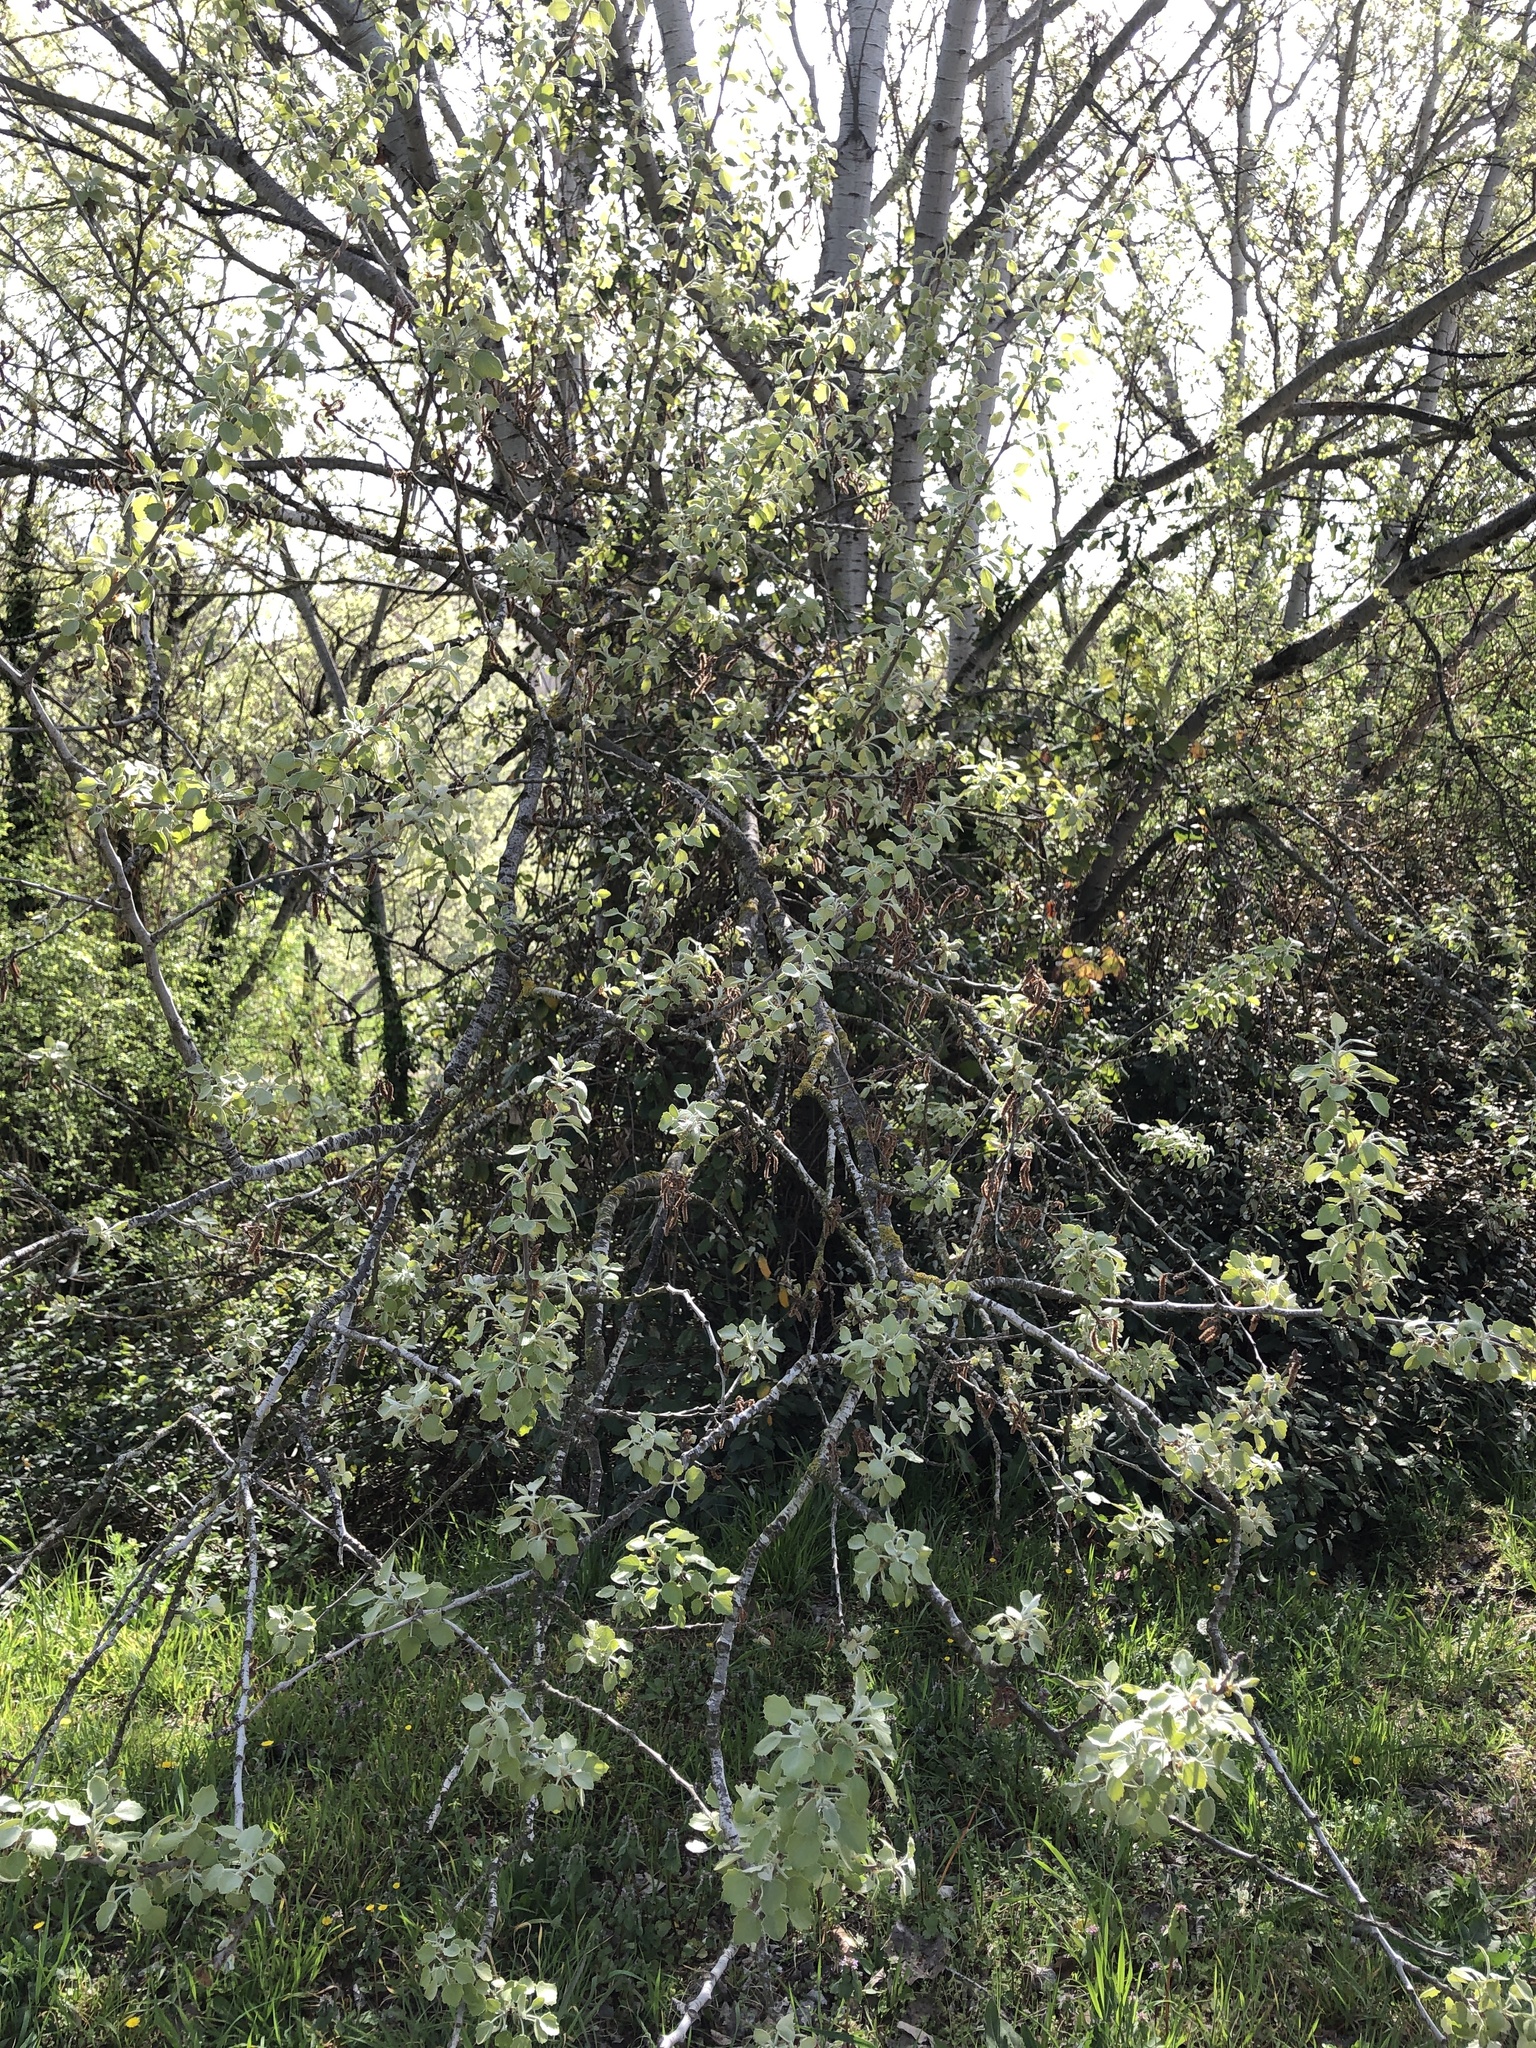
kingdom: Plantae
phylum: Tracheophyta
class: Magnoliopsida
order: Malpighiales
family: Salicaceae
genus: Populus
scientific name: Populus alba
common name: White poplar
